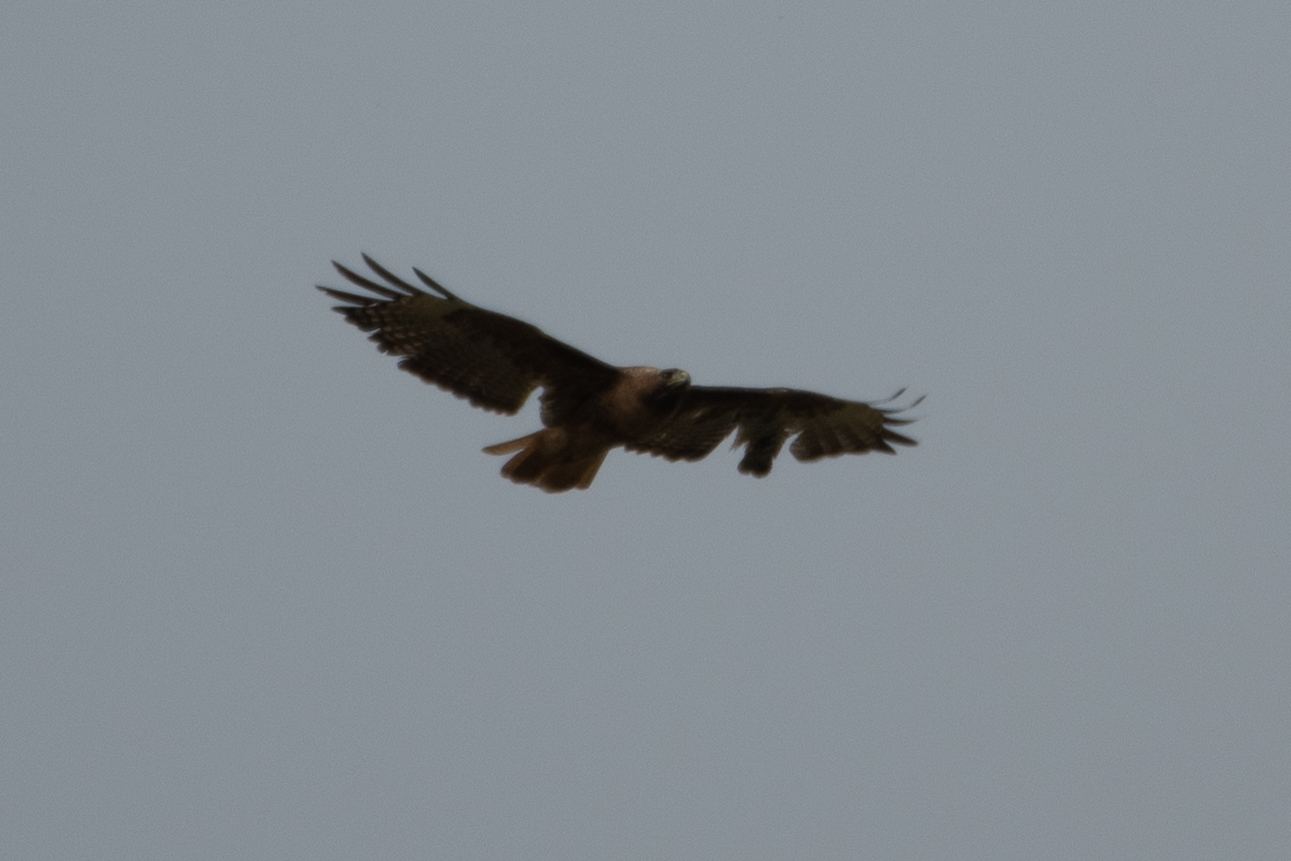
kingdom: Animalia
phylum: Chordata
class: Aves
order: Accipitriformes
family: Accipitridae
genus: Buteo
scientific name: Buteo jamaicensis
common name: Red-tailed hawk
